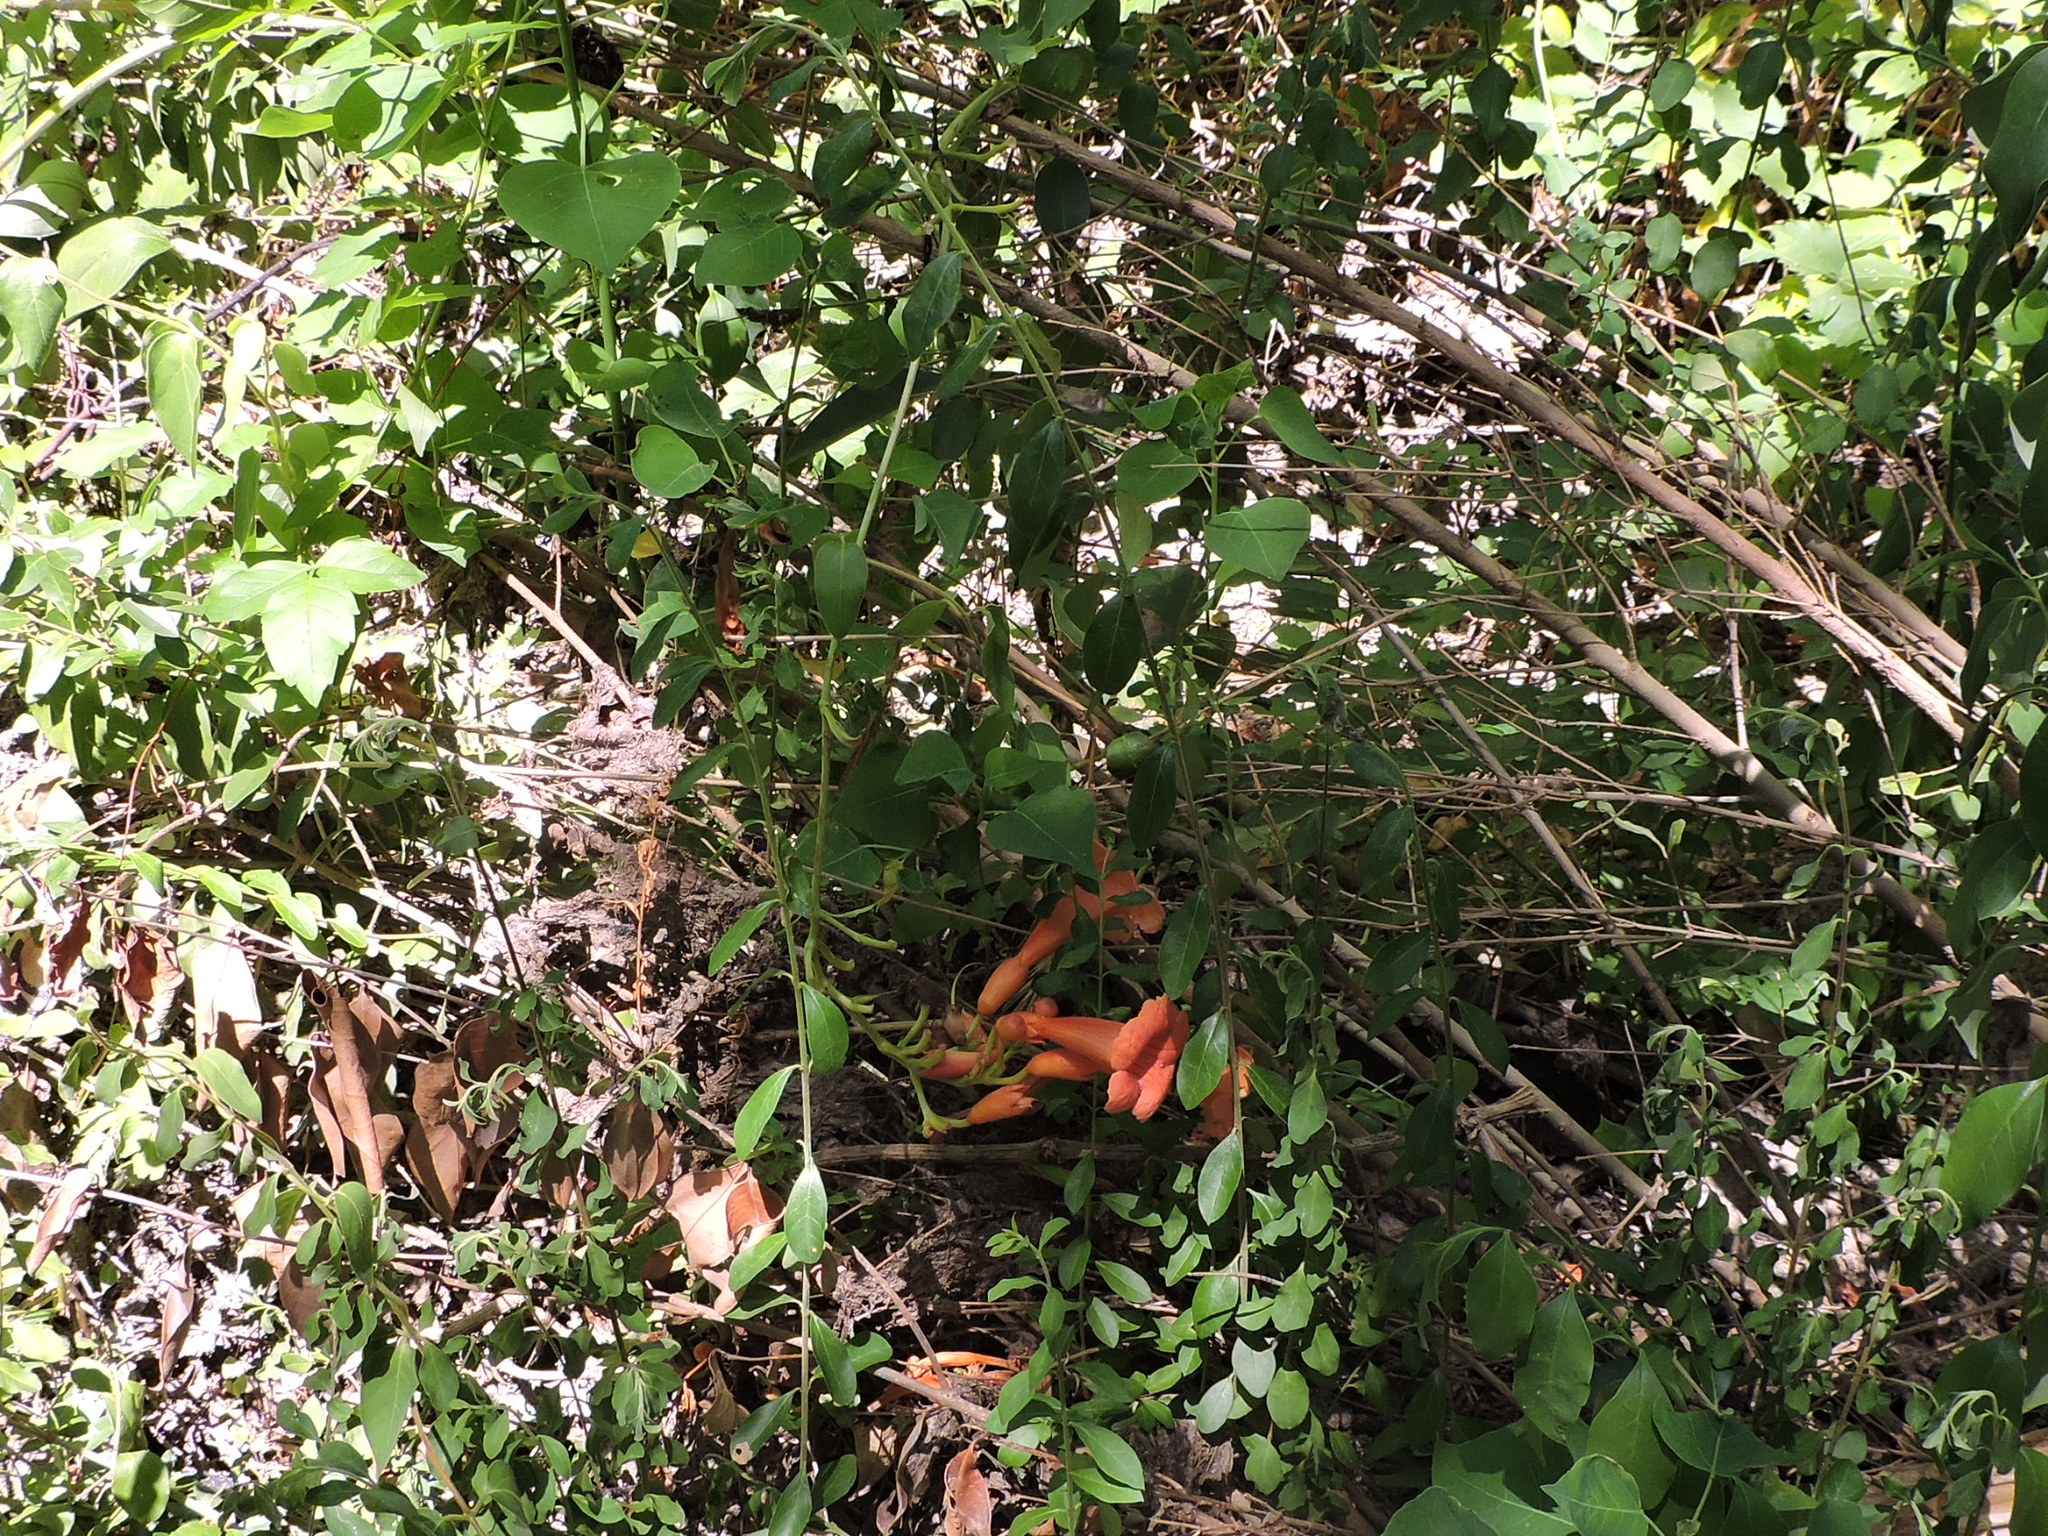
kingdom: Plantae
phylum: Tracheophyta
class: Magnoliopsida
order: Lamiales
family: Bignoniaceae
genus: Campsis
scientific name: Campsis radicans
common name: Trumpet-creeper
